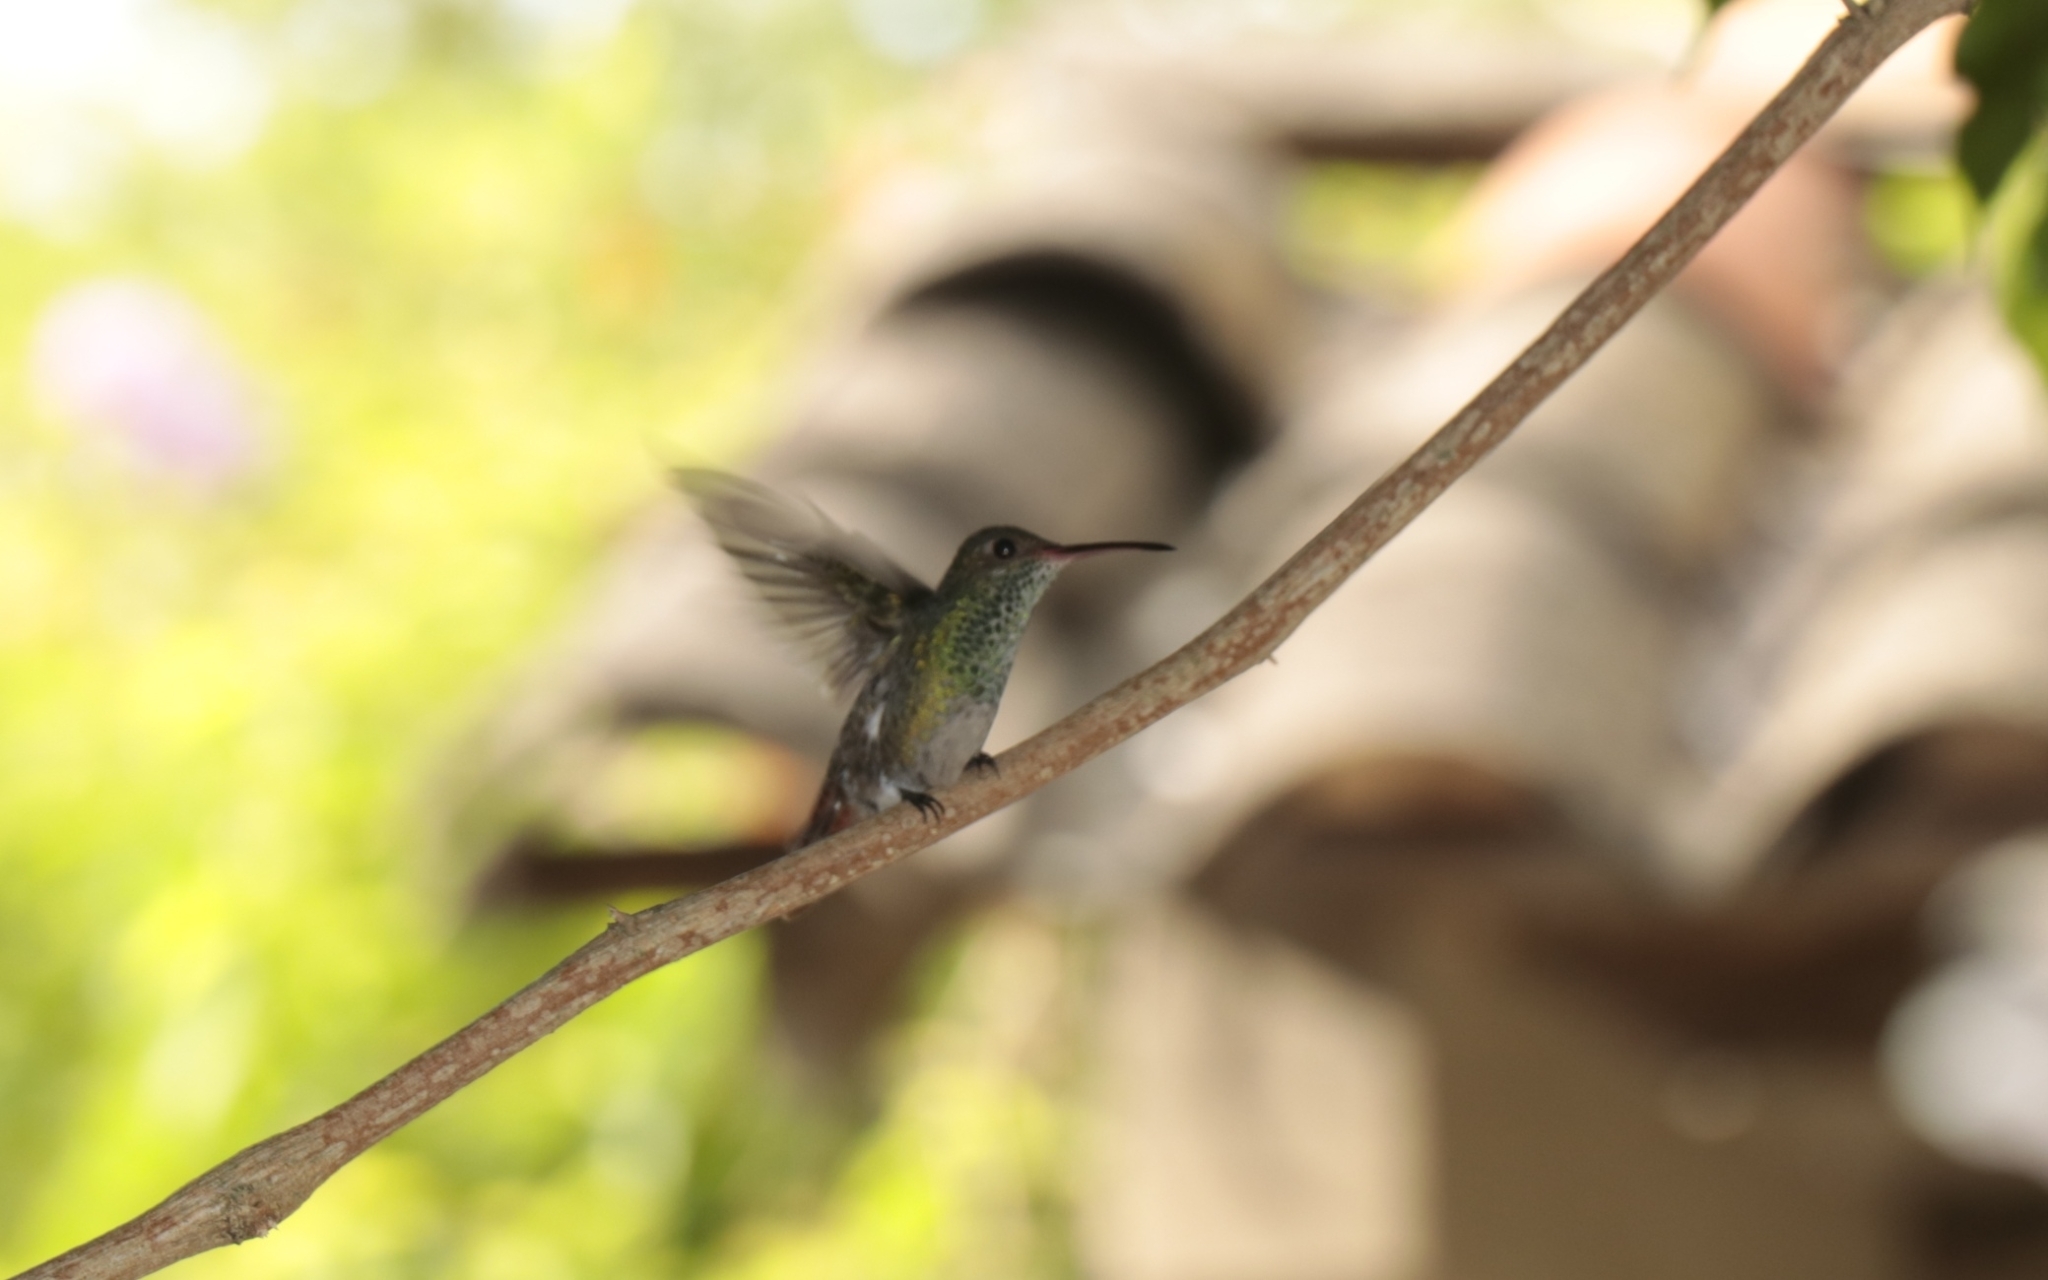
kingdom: Animalia
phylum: Chordata
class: Aves
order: Apodiformes
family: Trochilidae
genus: Amazilia
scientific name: Amazilia tzacatl
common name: Rufous-tailed hummingbird
